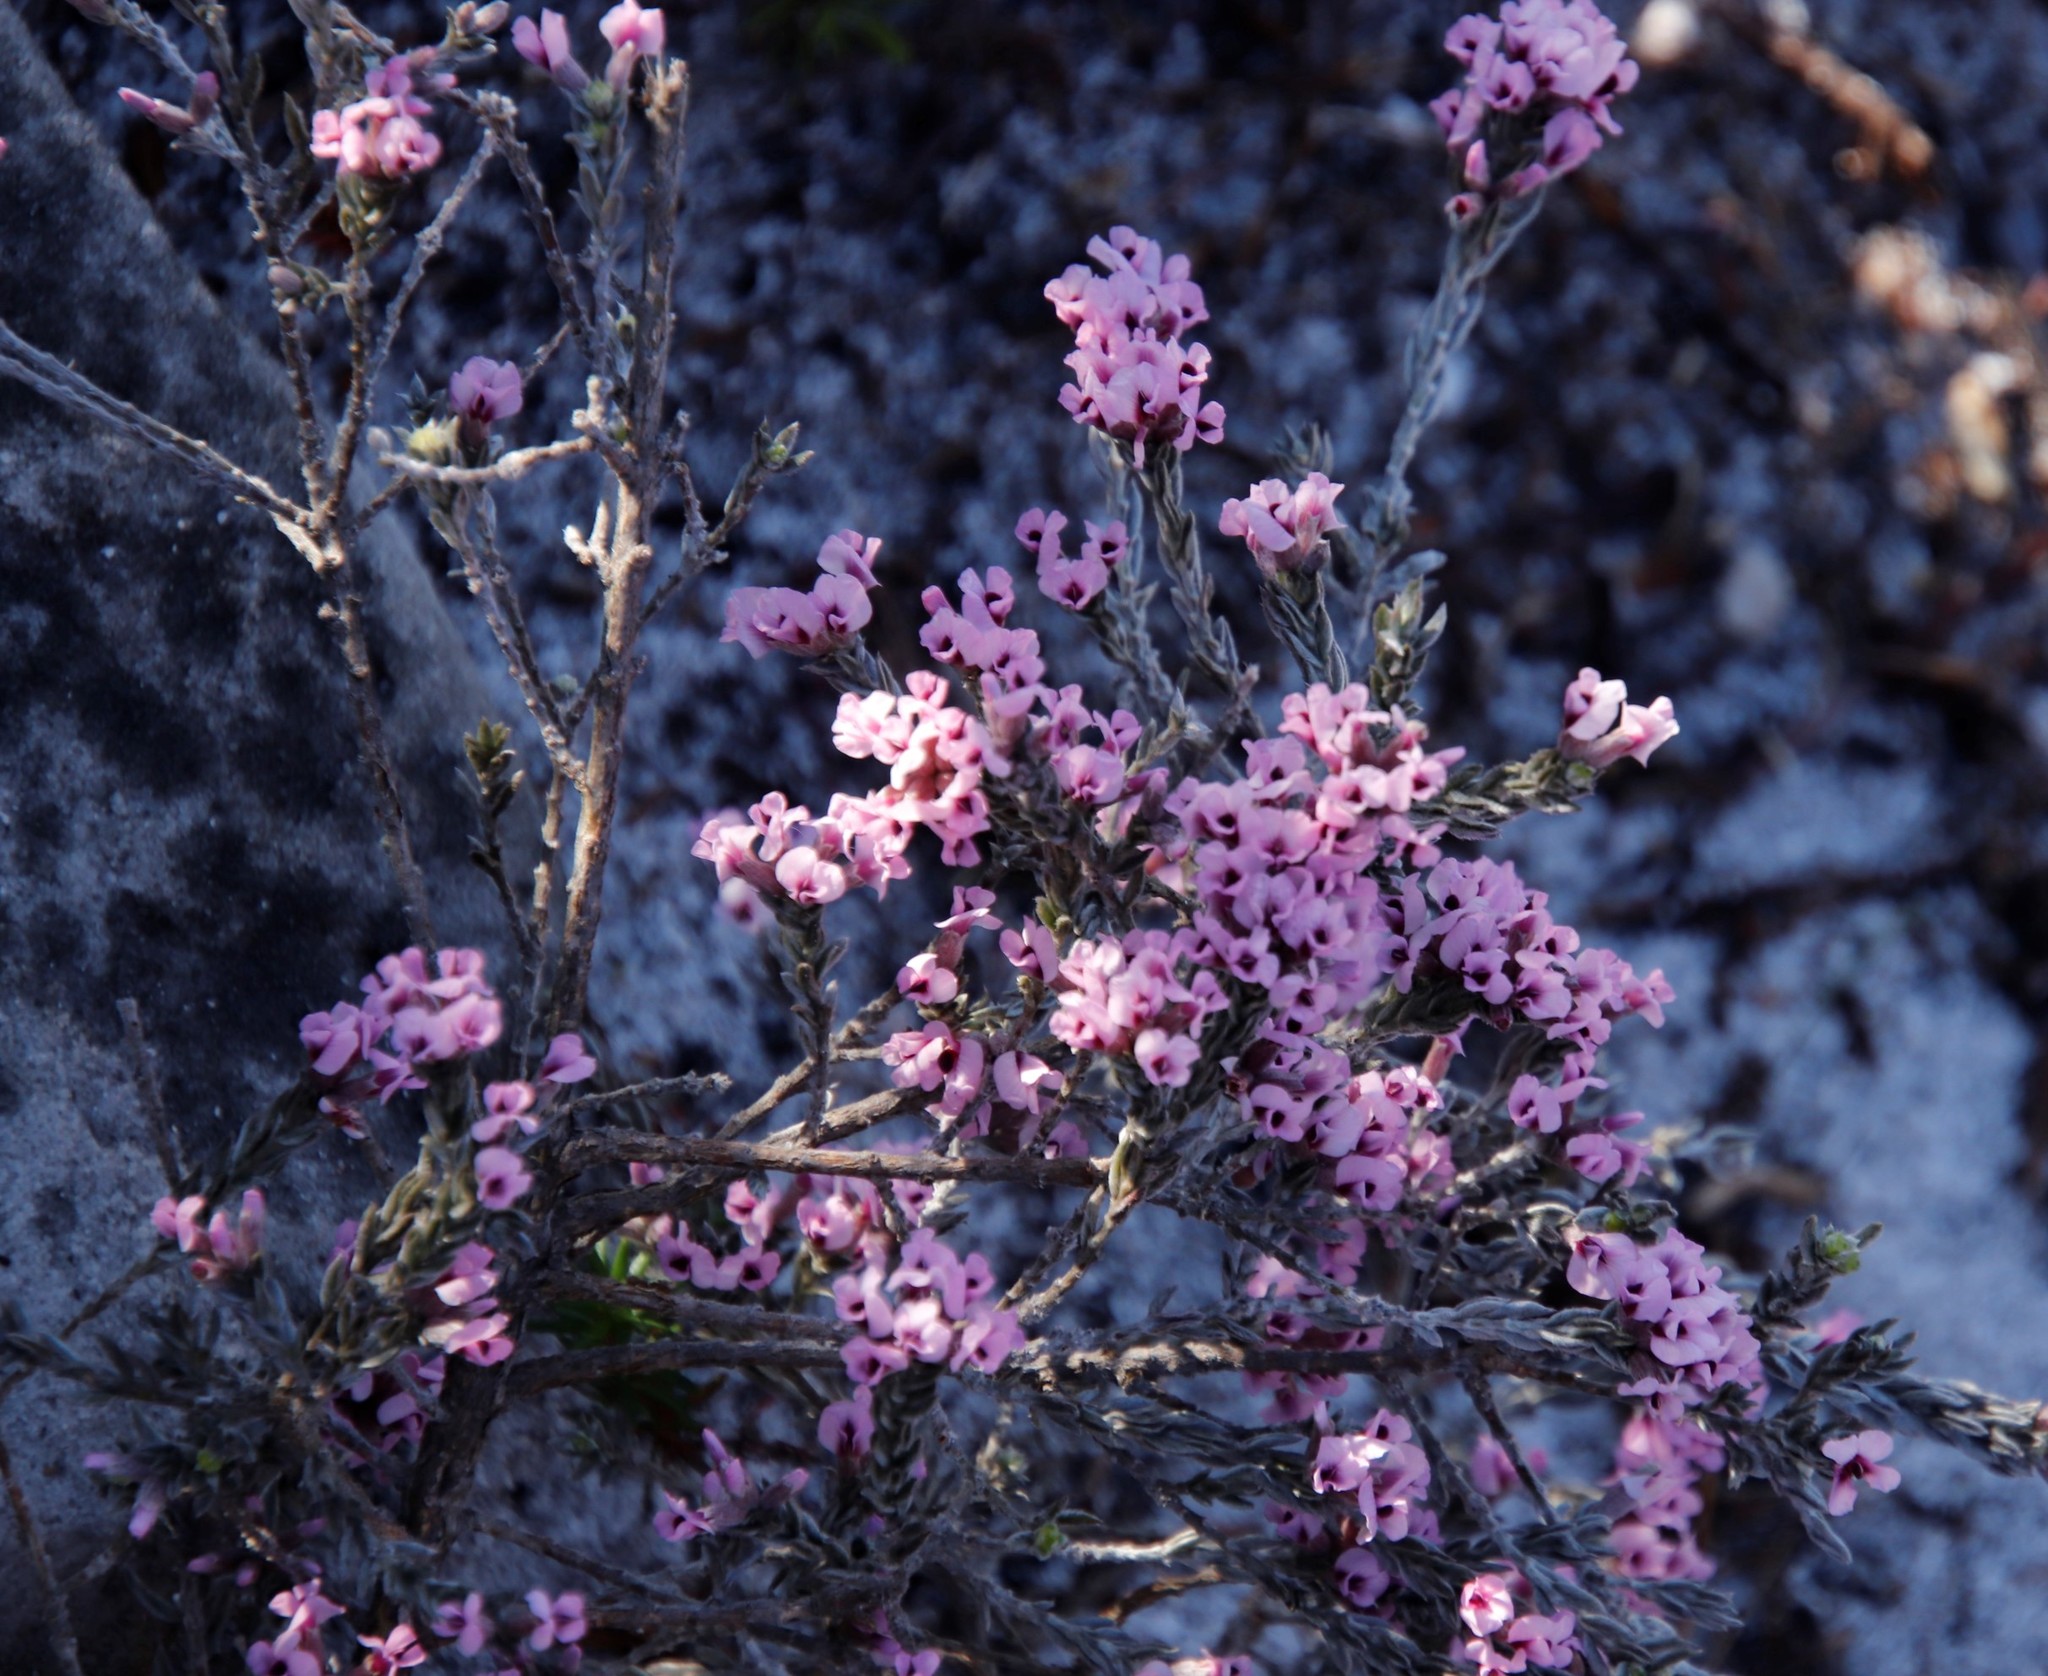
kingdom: Plantae
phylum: Tracheophyta
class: Magnoliopsida
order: Fabales
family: Fabaceae
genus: Amphithalea
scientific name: Amphithalea ericifolia
